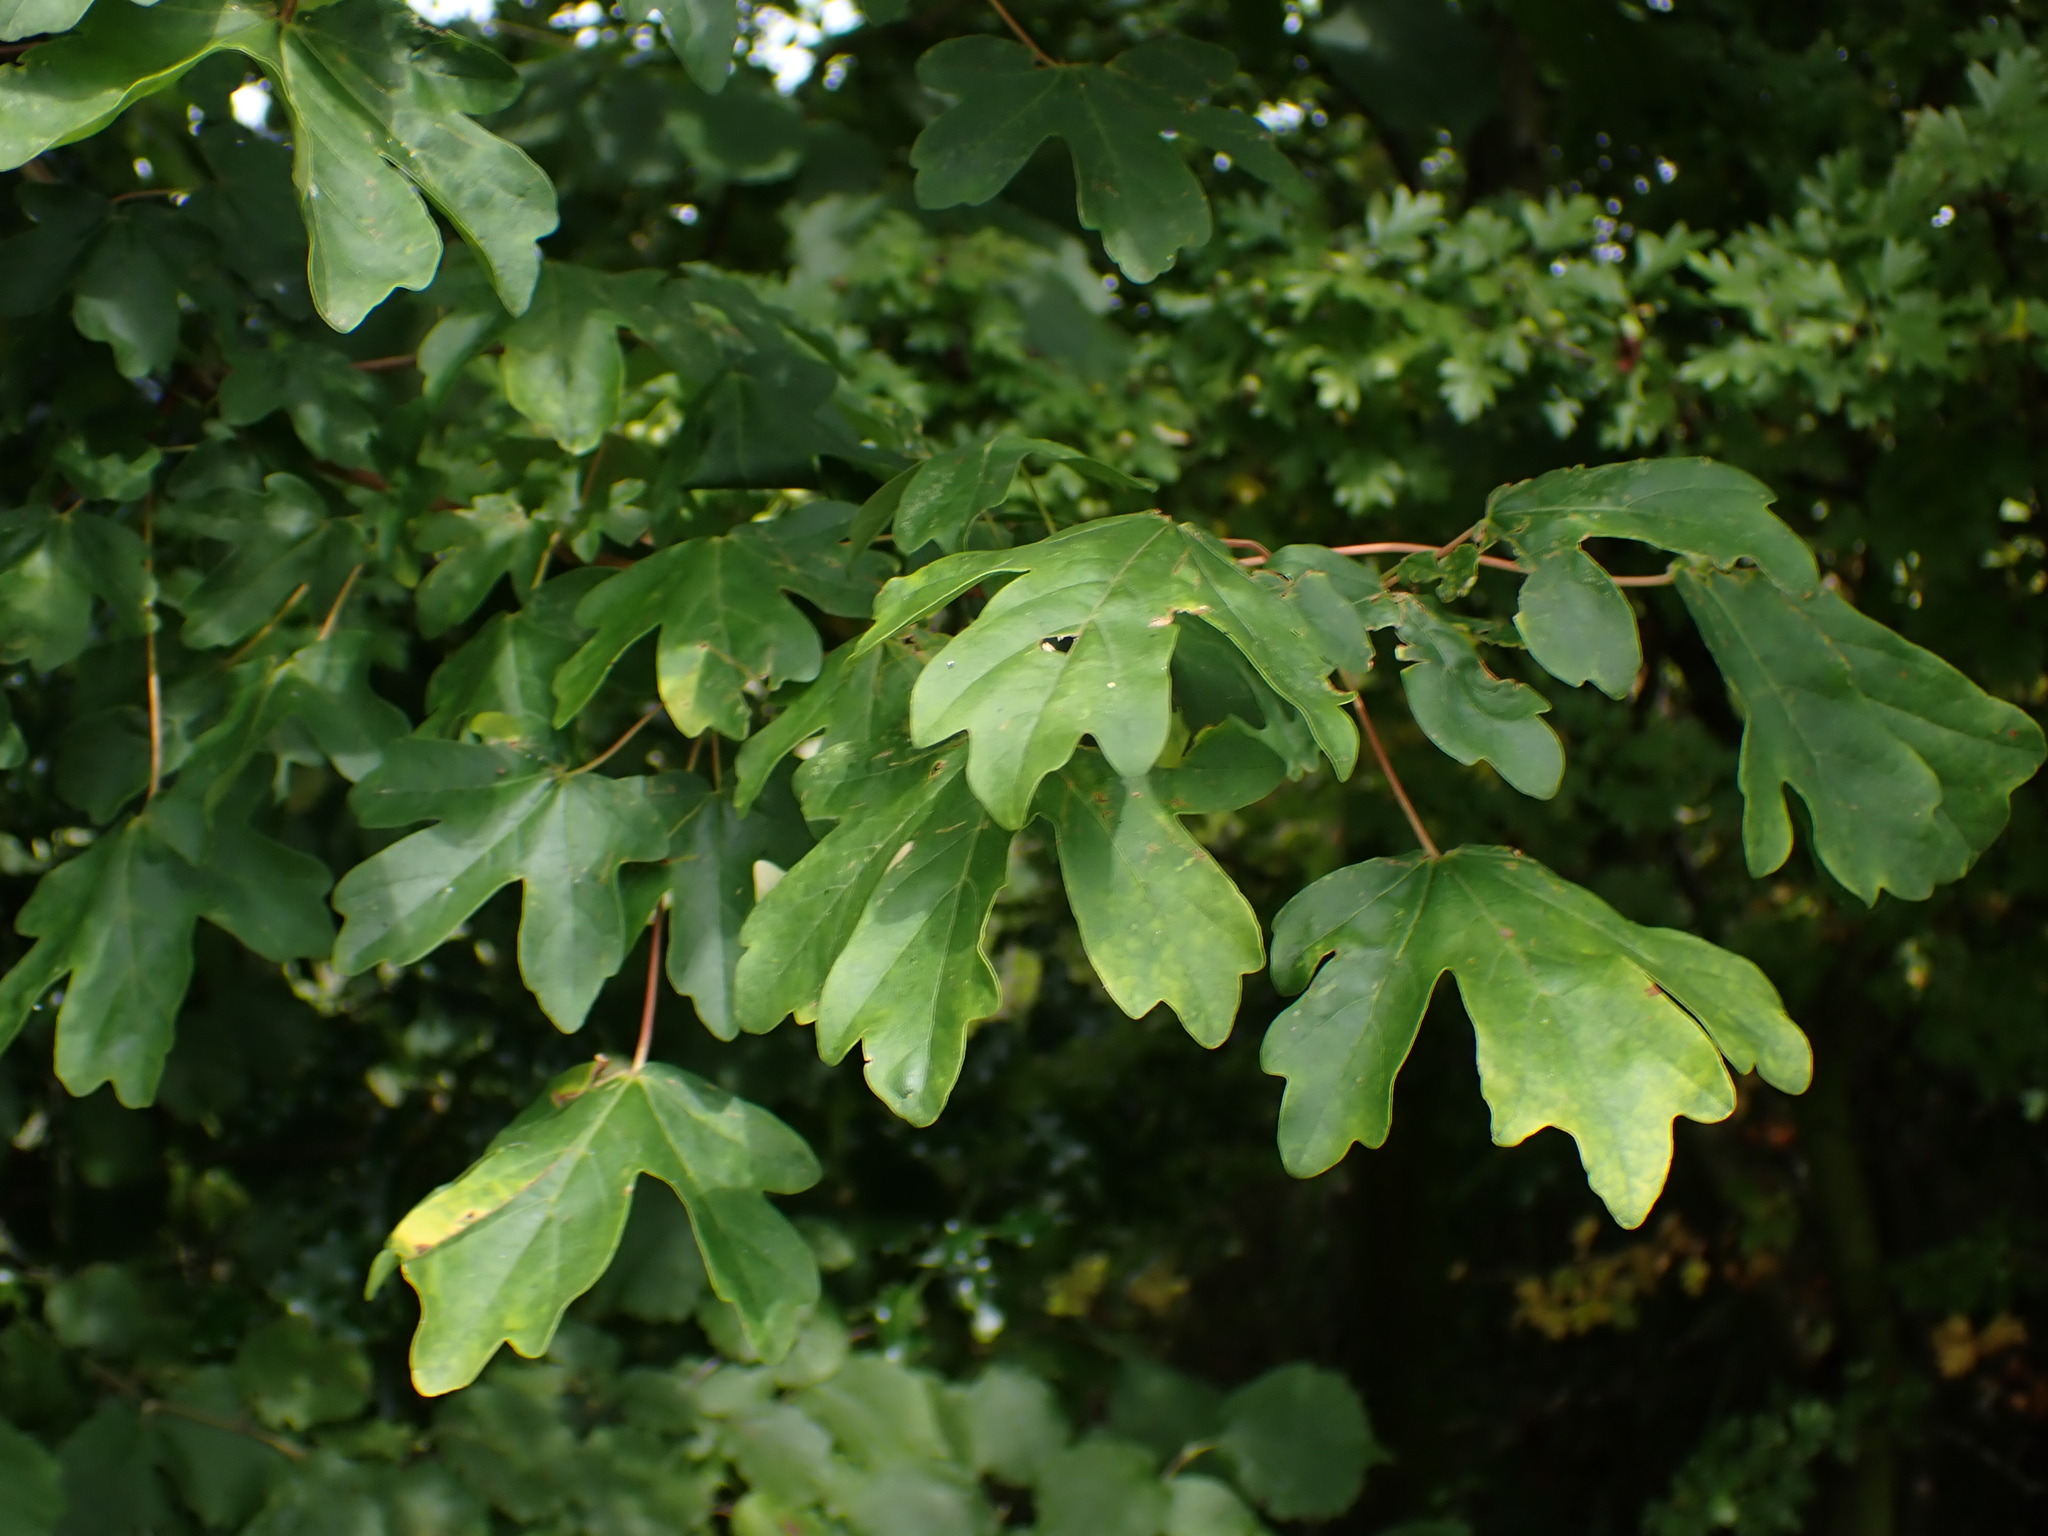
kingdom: Plantae
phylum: Tracheophyta
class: Magnoliopsida
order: Sapindales
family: Sapindaceae
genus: Acer
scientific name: Acer campestre
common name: Field maple
